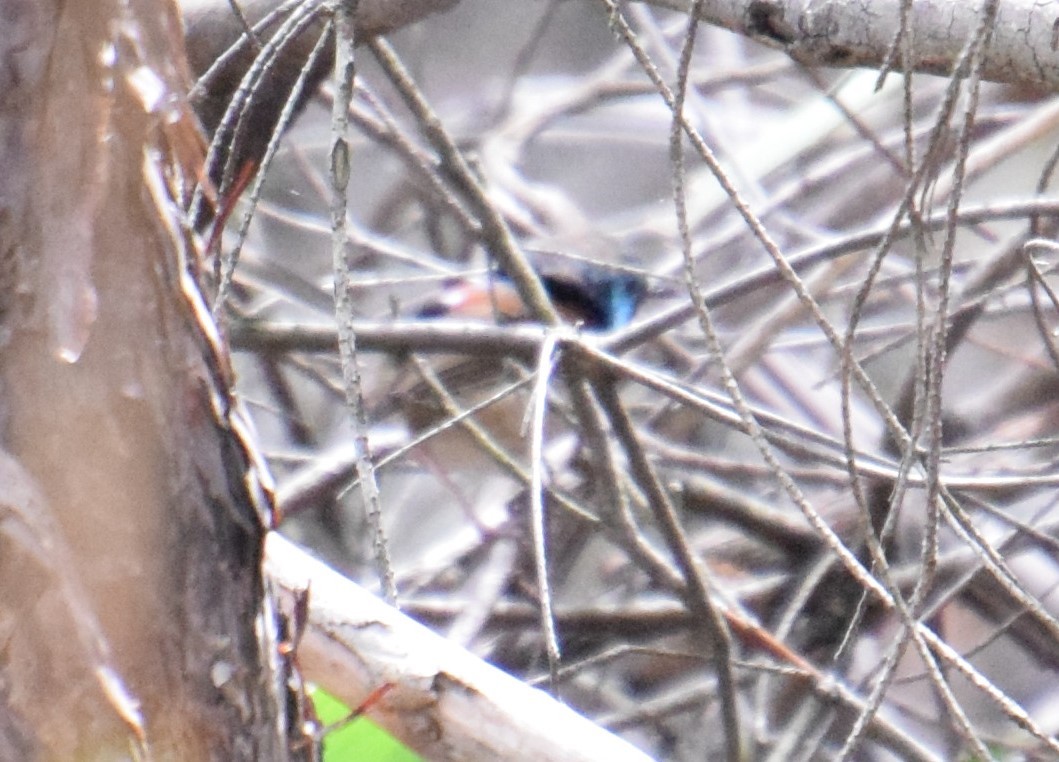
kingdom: Animalia
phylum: Chordata
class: Aves
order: Passeriformes
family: Maluridae
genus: Malurus
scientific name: Malurus lamberti
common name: Variegated fairywren
